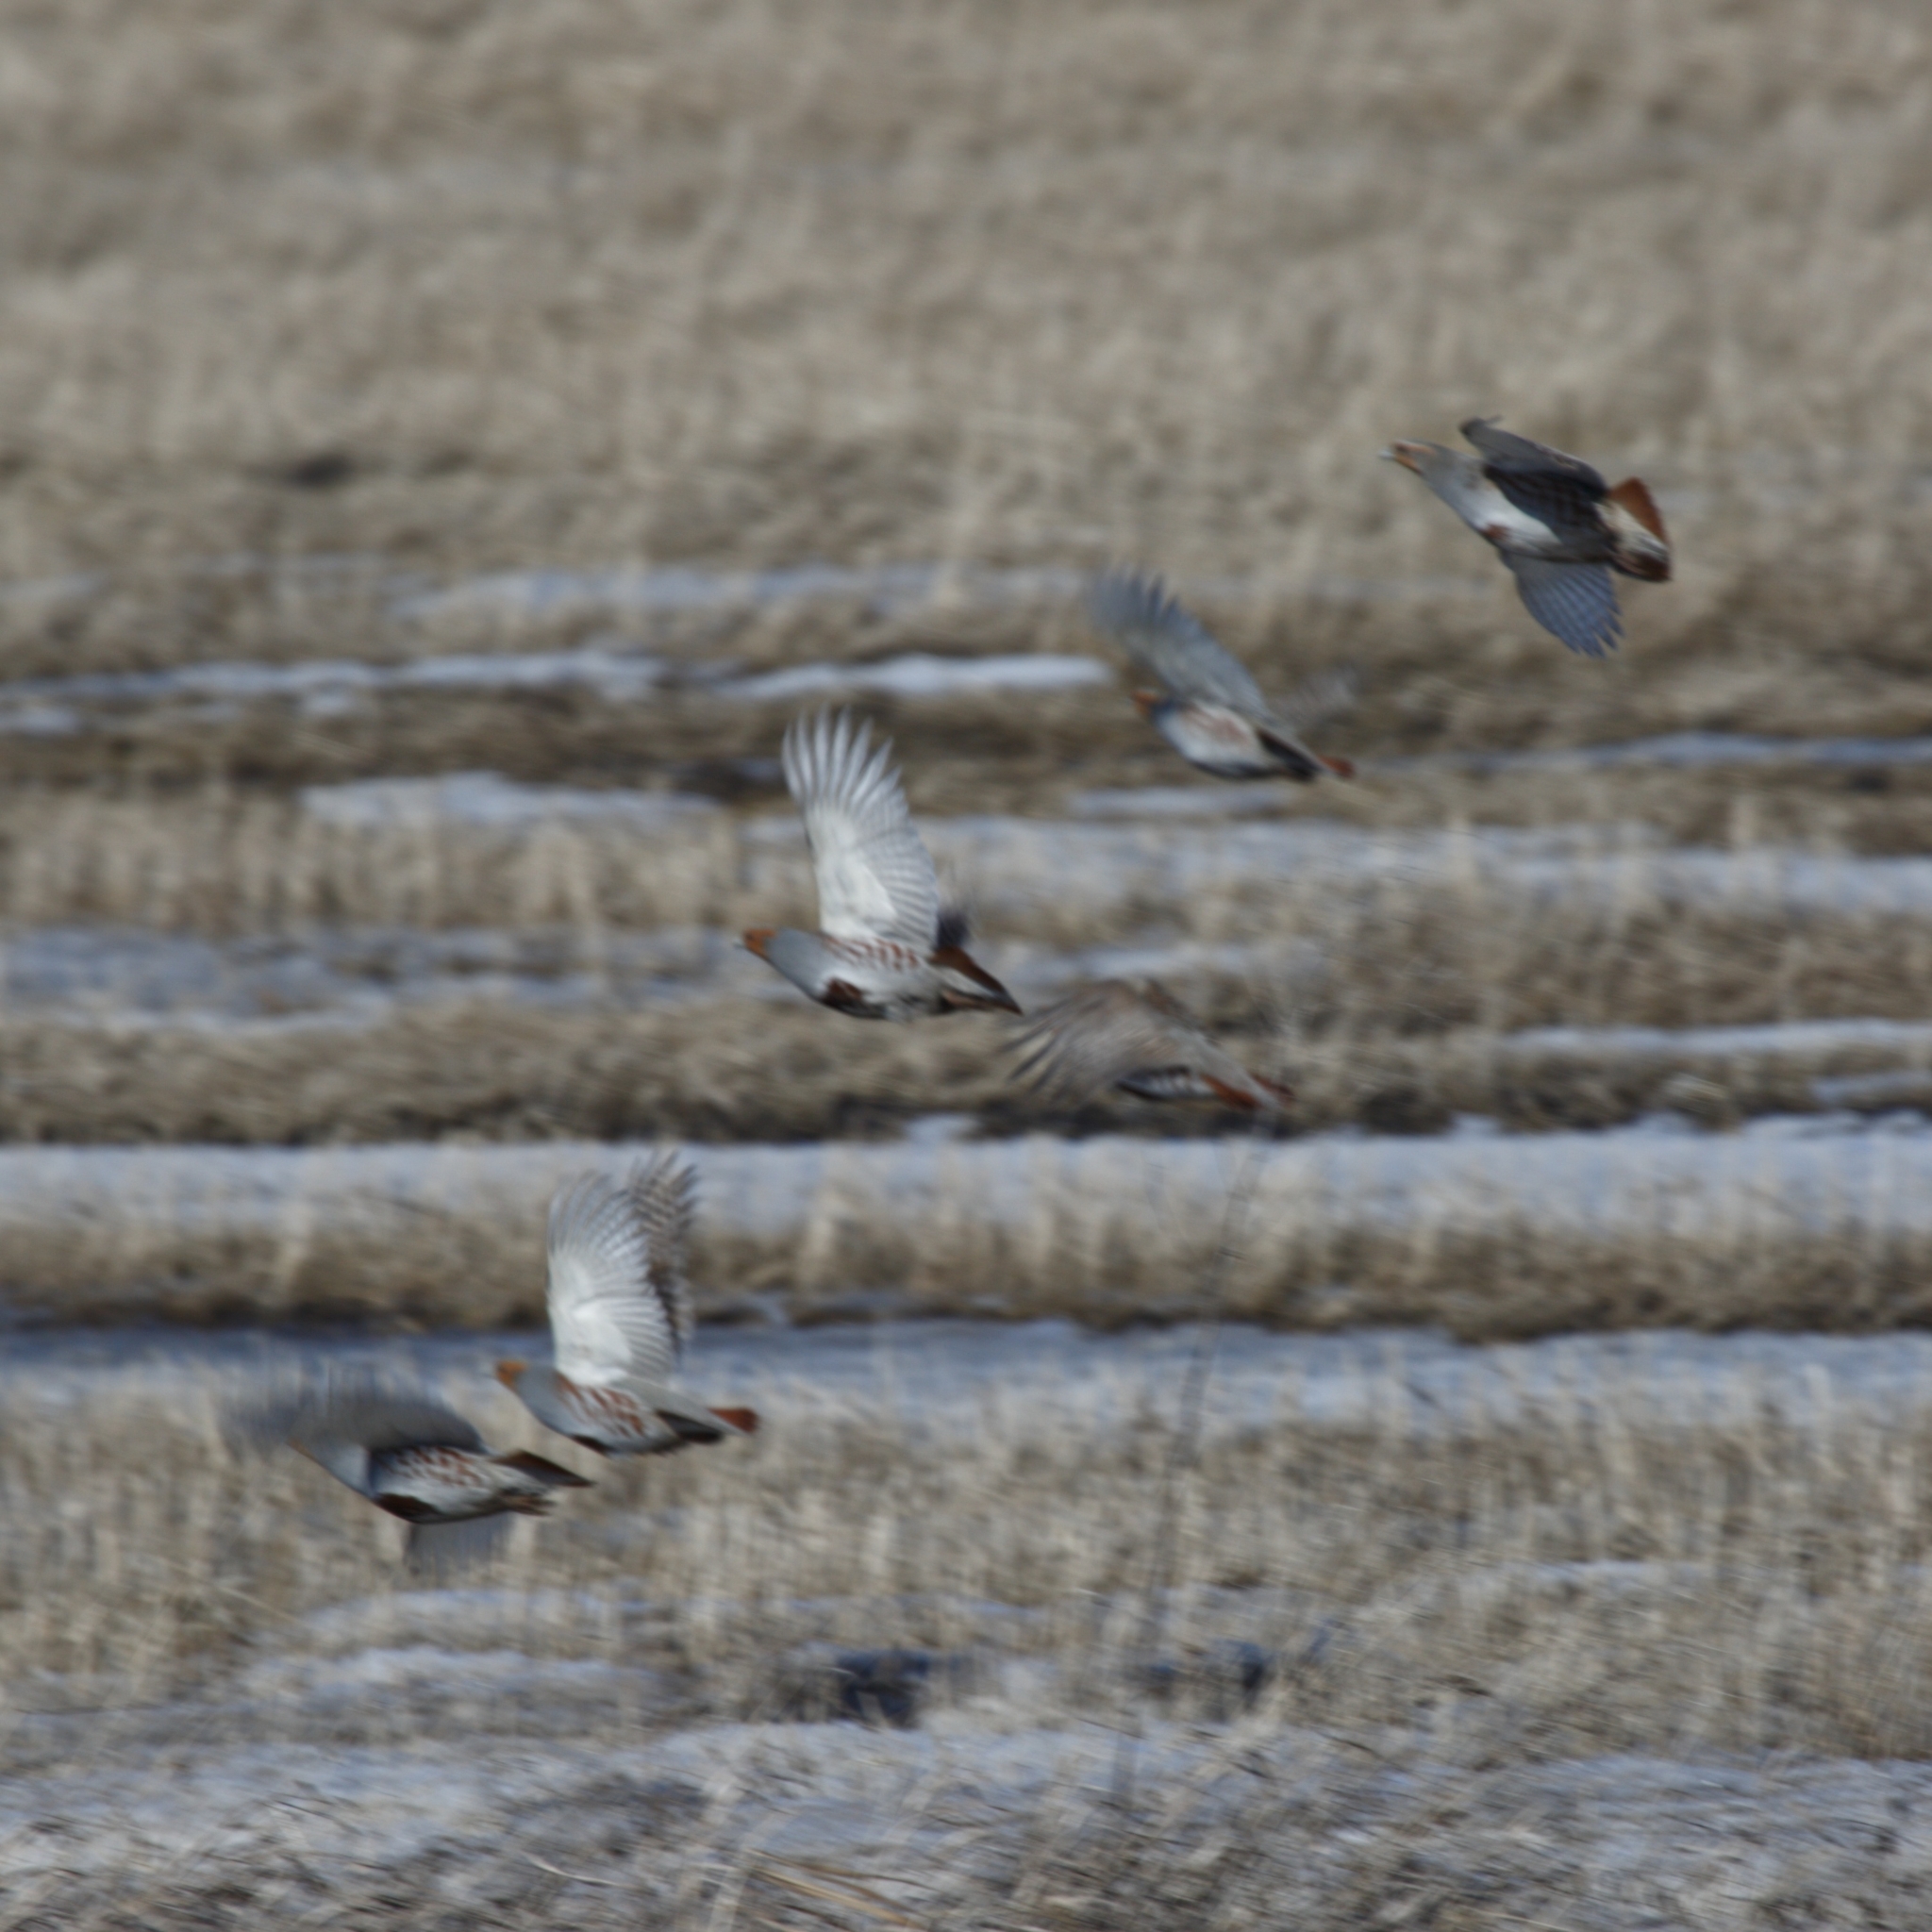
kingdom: Animalia
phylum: Chordata
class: Aves
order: Galliformes
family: Phasianidae
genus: Perdix
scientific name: Perdix perdix
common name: Grey partridge
